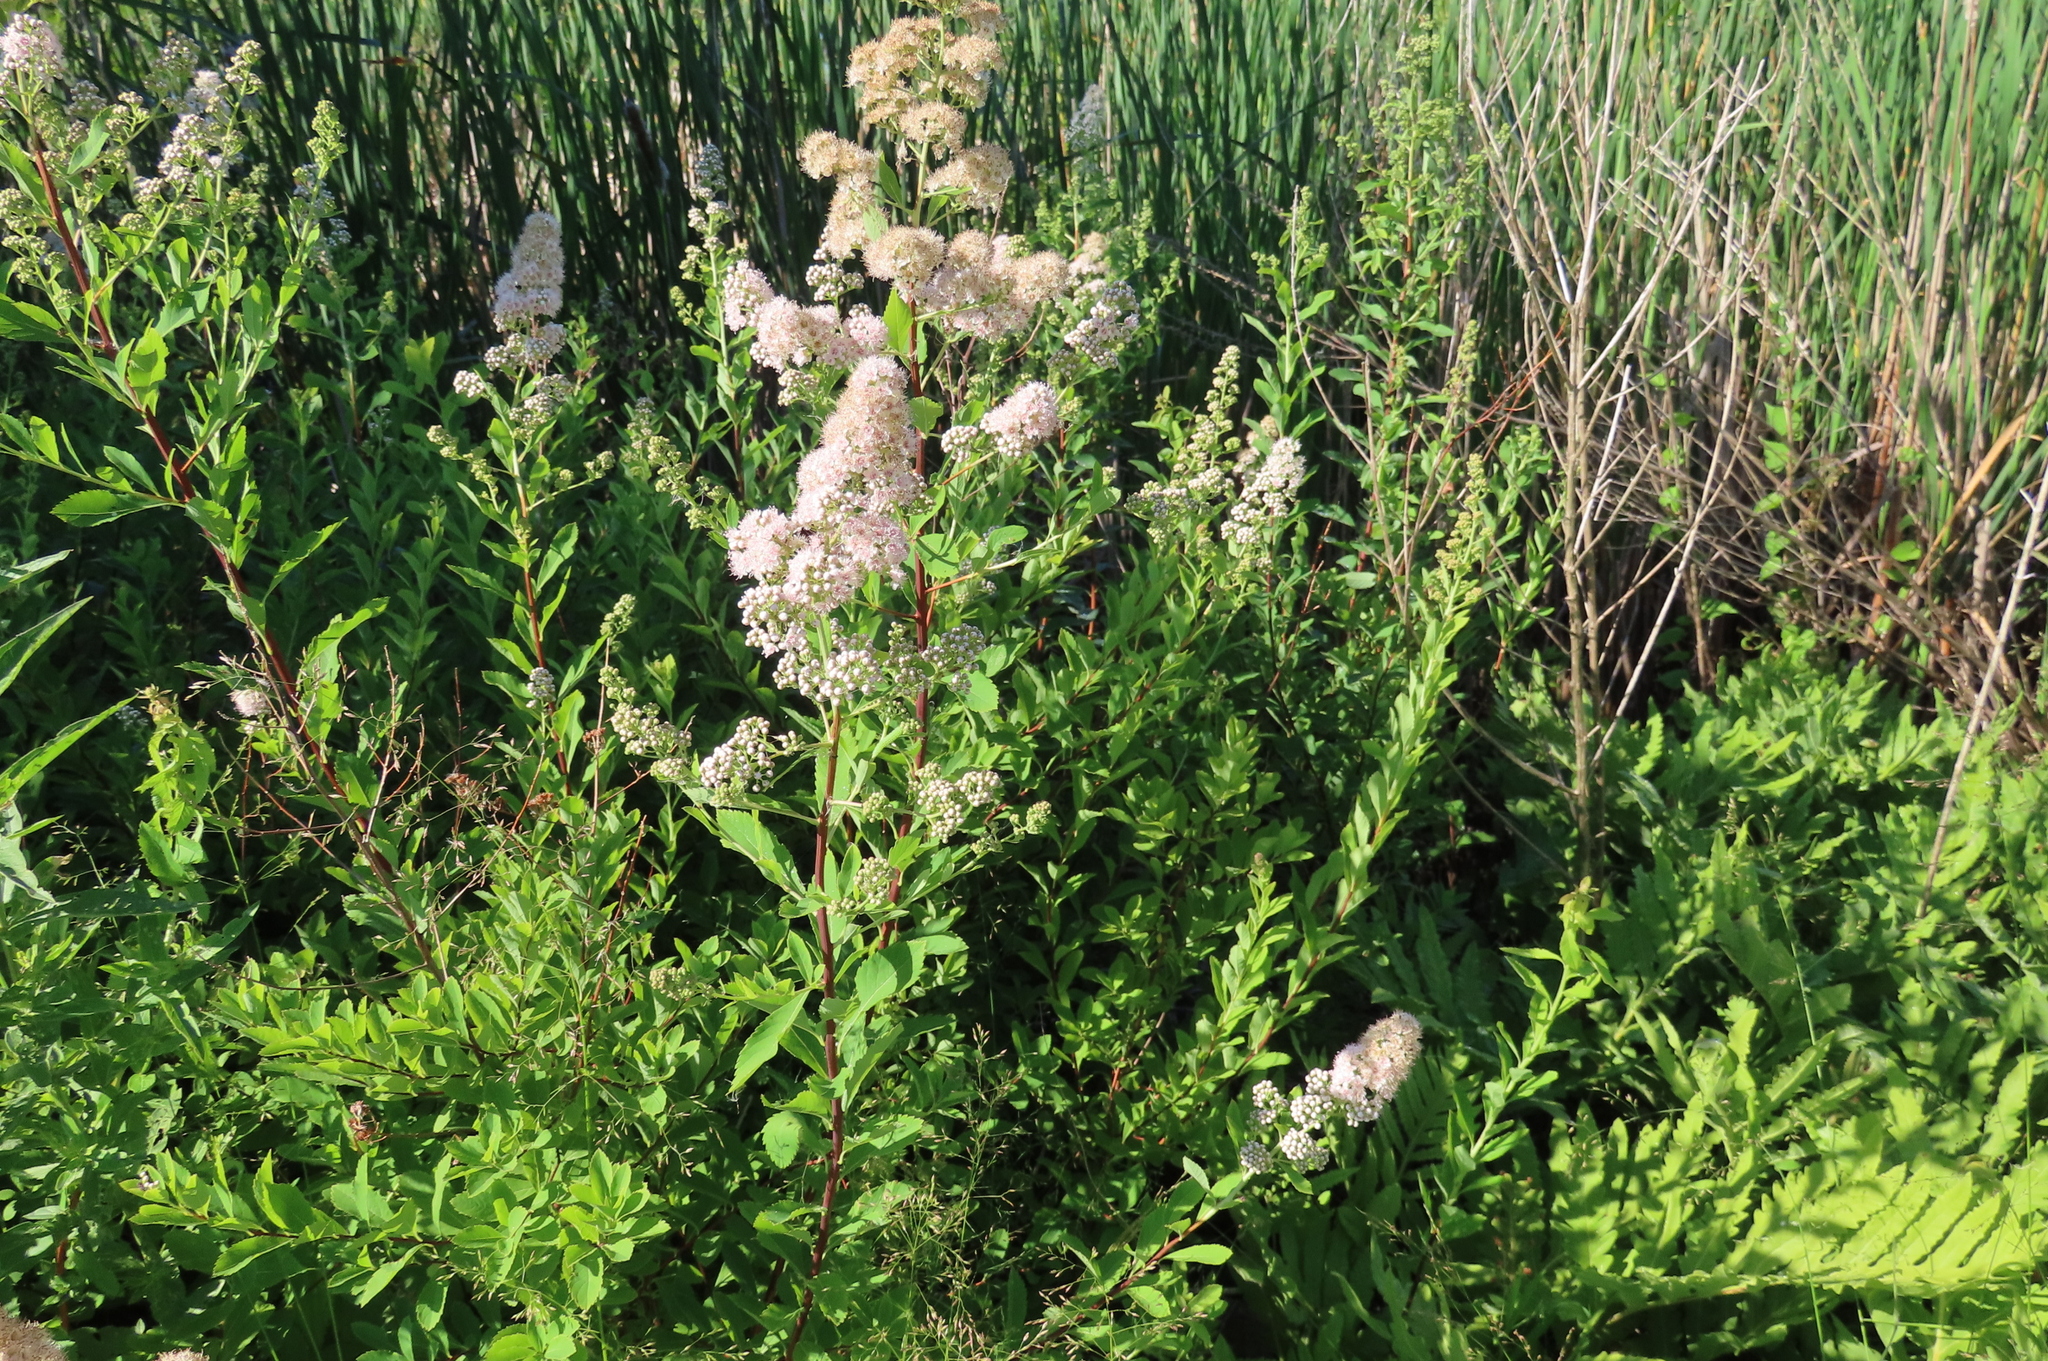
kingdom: Plantae
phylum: Tracheophyta
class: Magnoliopsida
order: Rosales
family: Rosaceae
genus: Spiraea
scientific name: Spiraea alba
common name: Pale bridewort
